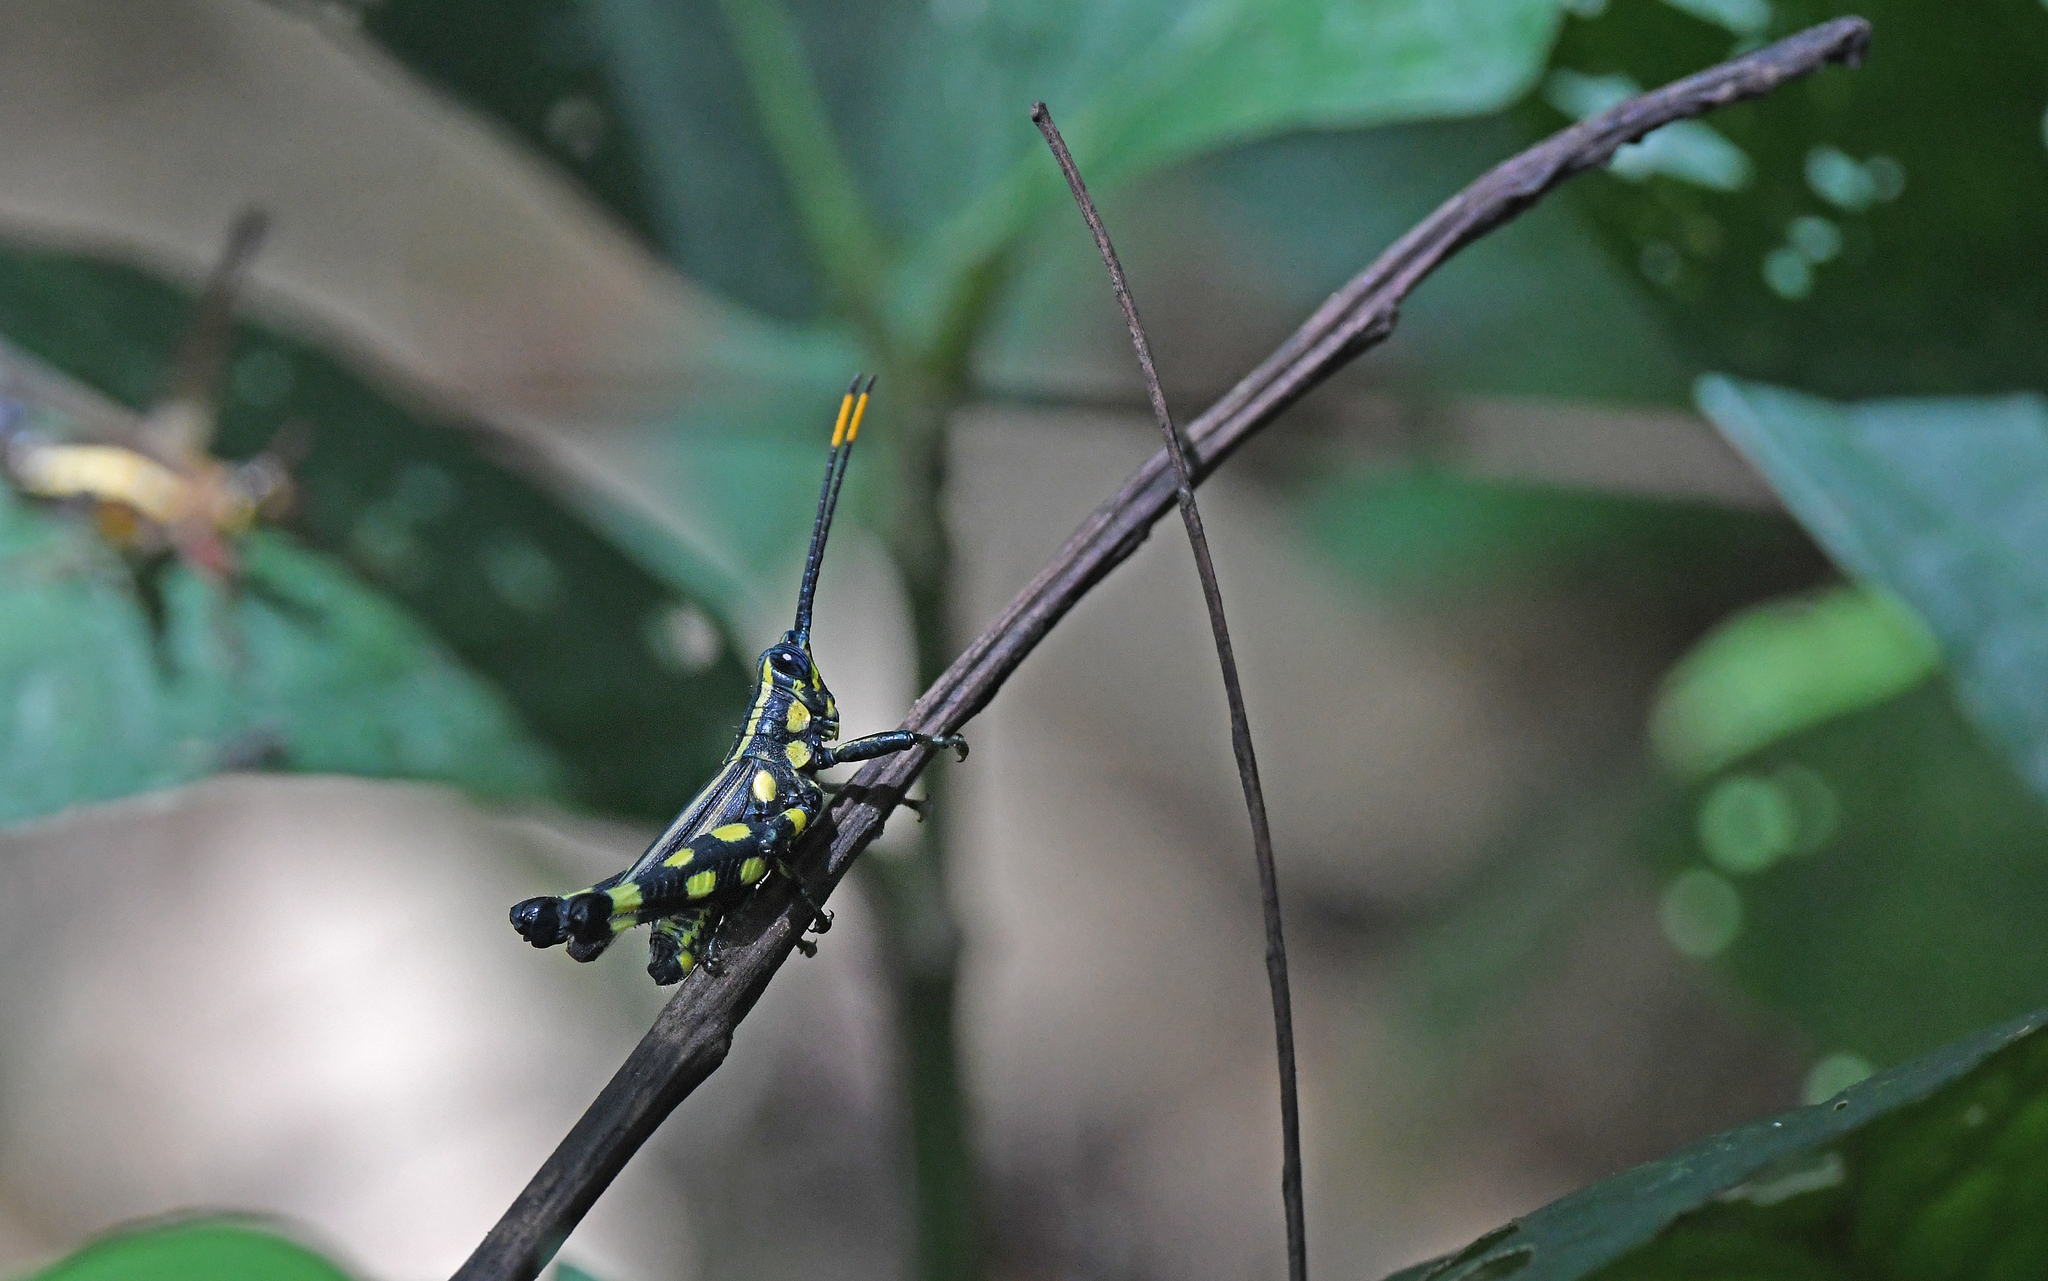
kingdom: Animalia
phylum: Arthropoda
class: Insecta
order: Orthoptera
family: Acrididae
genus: Rhopsotettix
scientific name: Rhopsotettix consummatus
